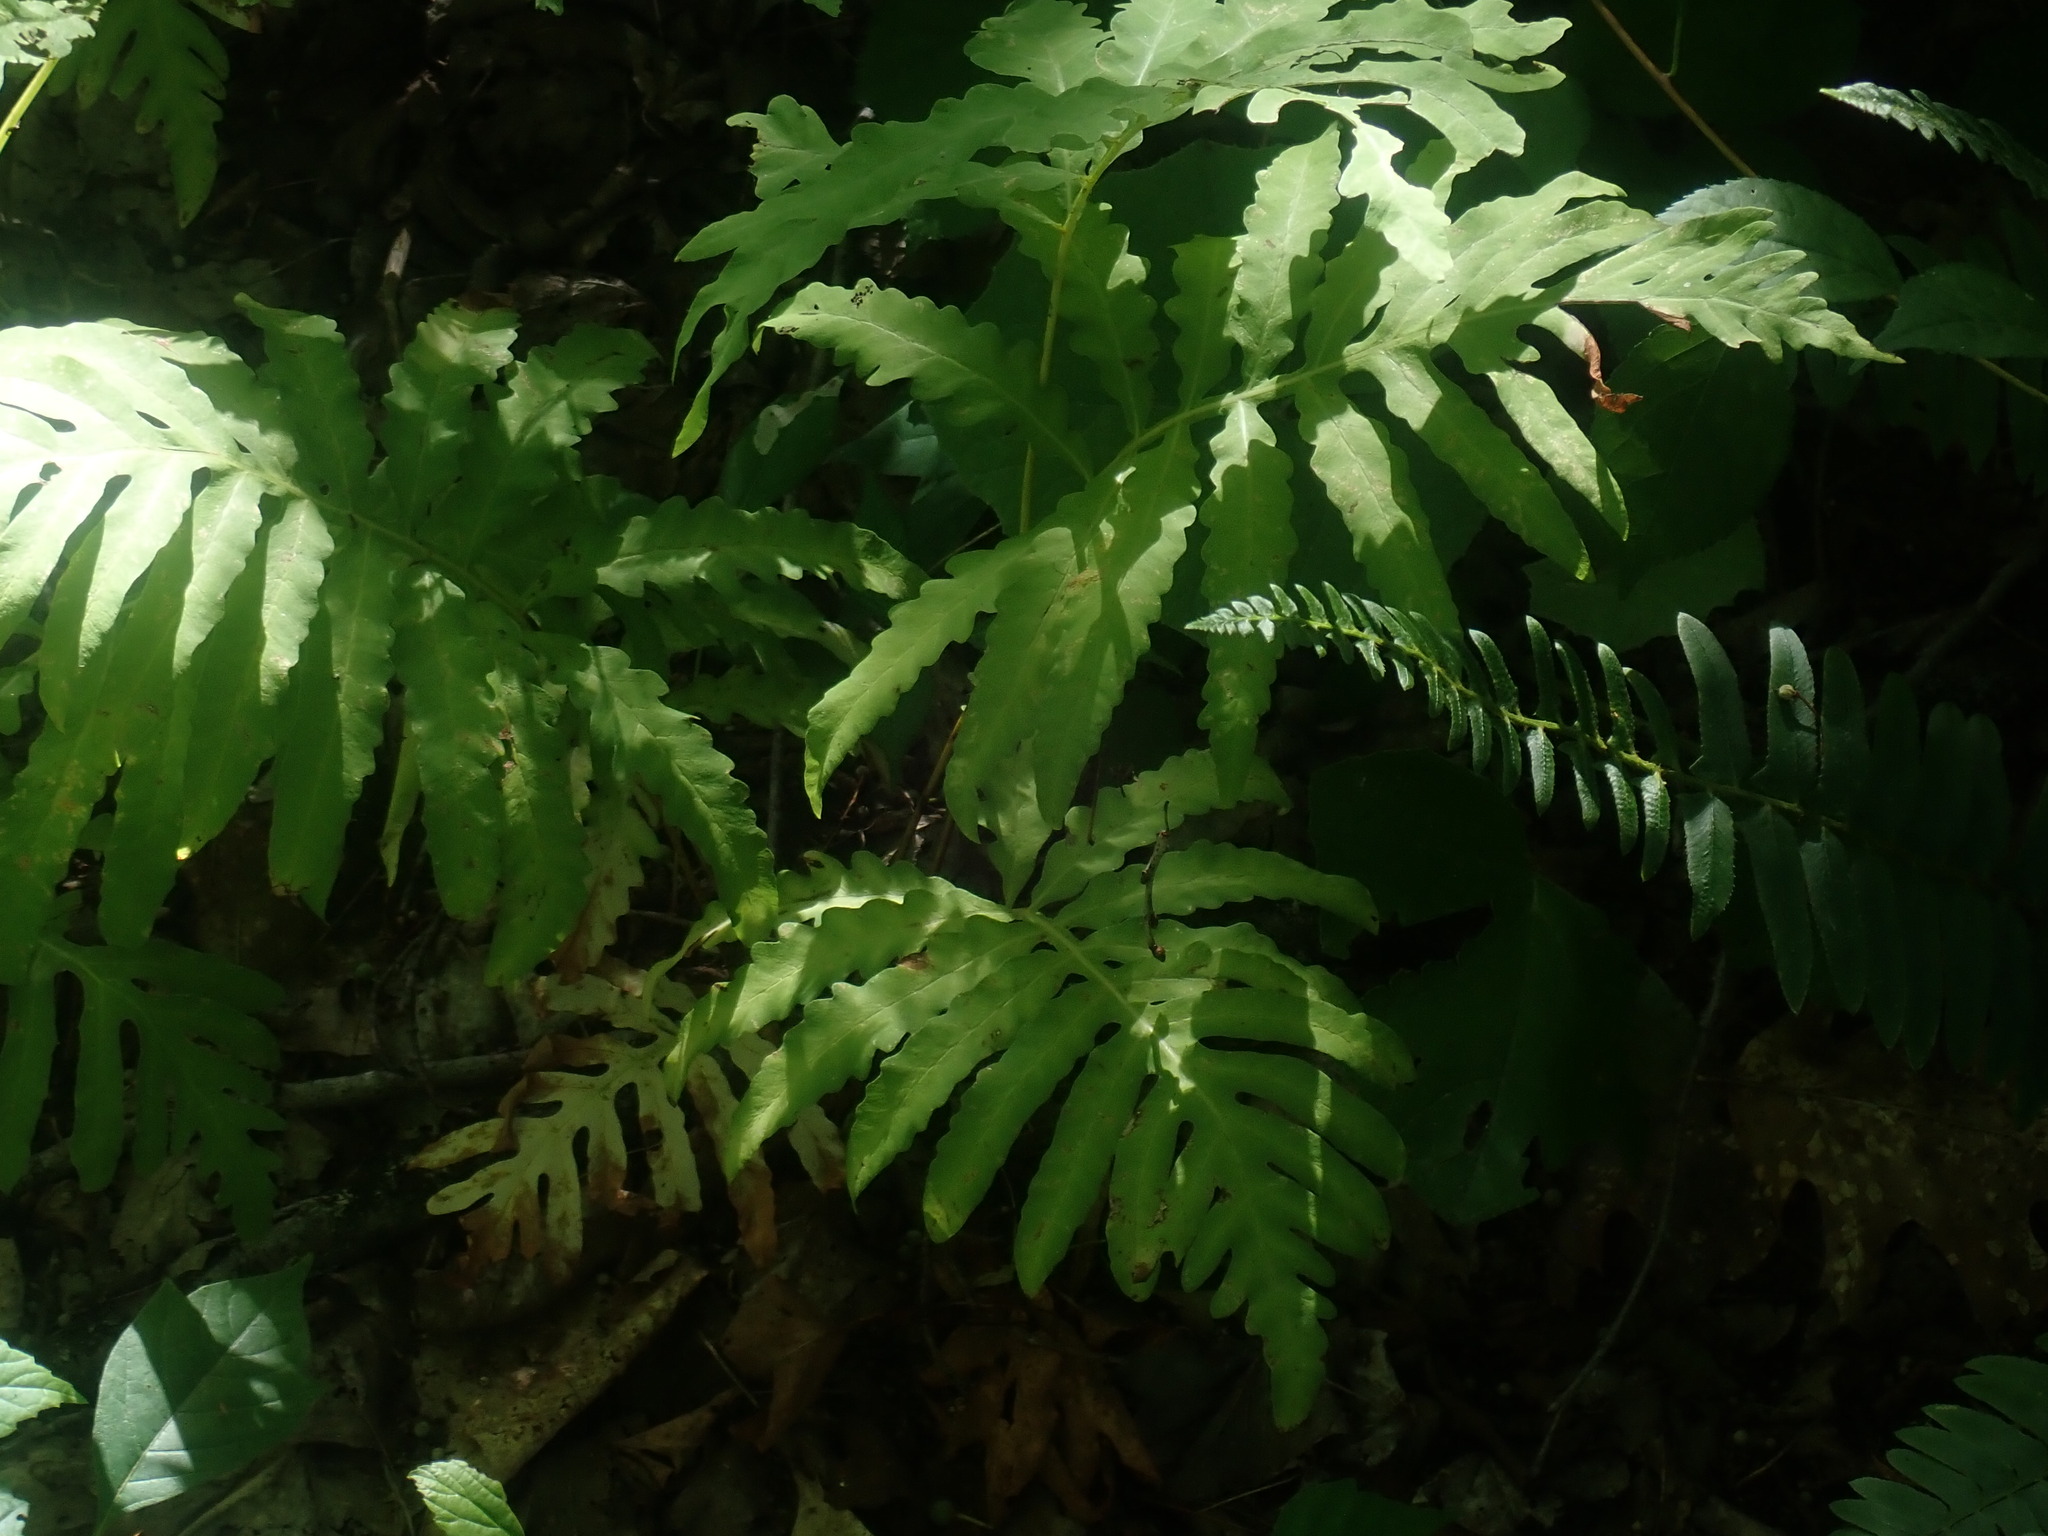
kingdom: Plantae
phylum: Tracheophyta
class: Polypodiopsida
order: Polypodiales
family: Onocleaceae
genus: Onoclea
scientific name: Onoclea sensibilis
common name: Sensitive fern
